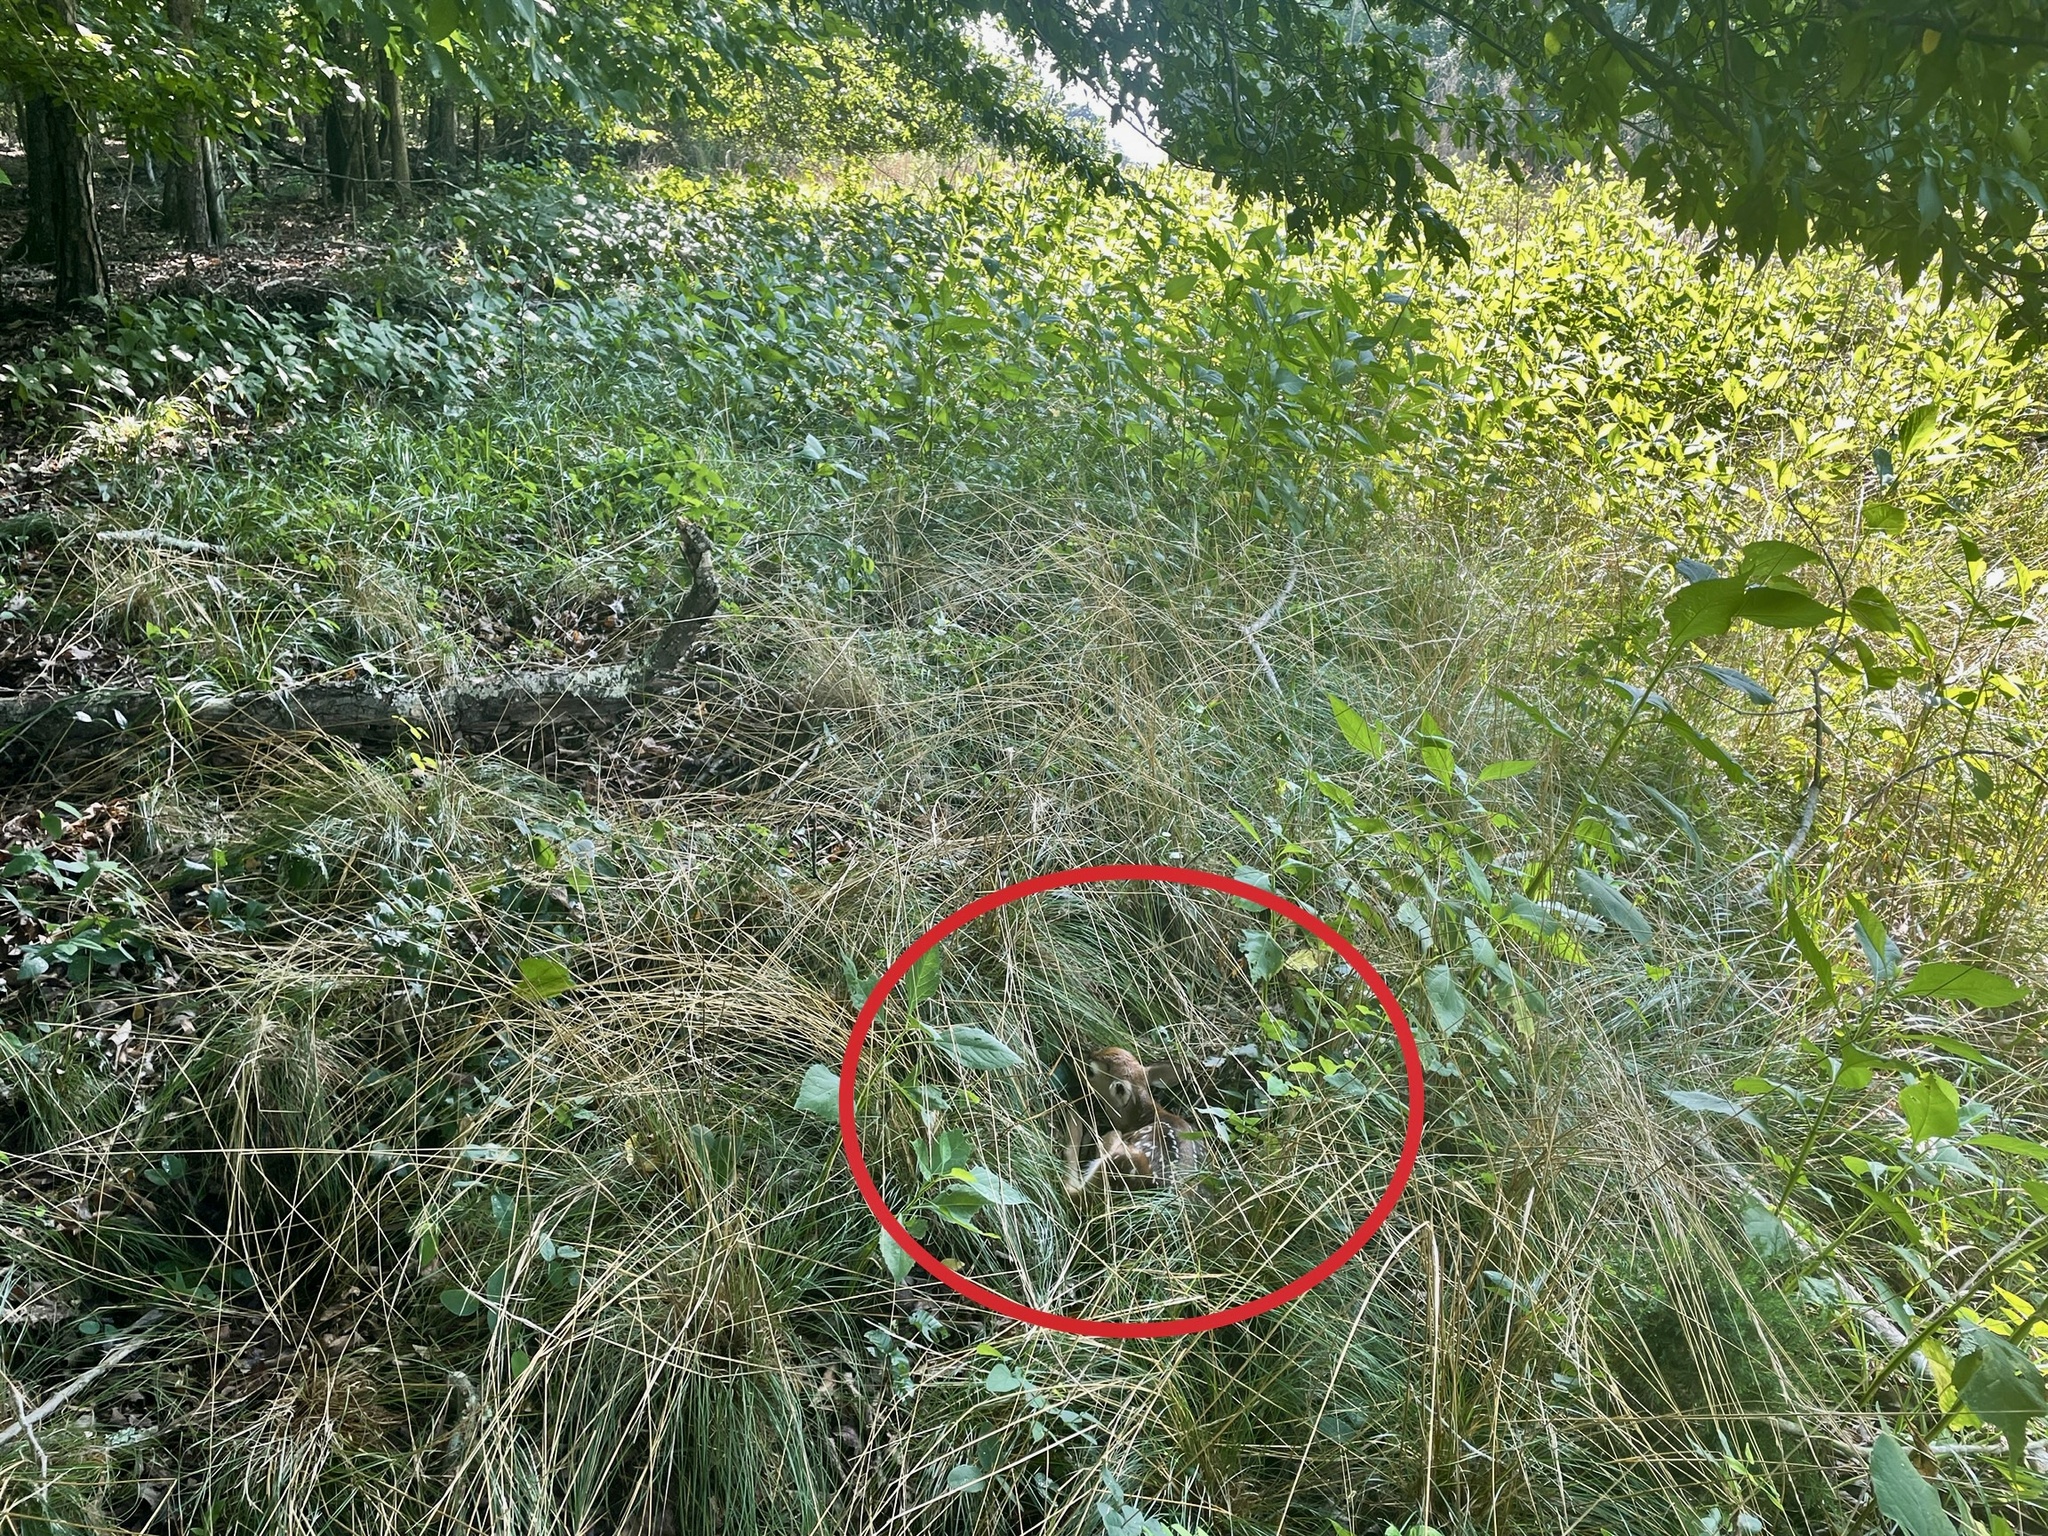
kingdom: Animalia
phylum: Chordata
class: Mammalia
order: Artiodactyla
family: Cervidae
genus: Odocoileus
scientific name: Odocoileus virginianus
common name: White-tailed deer
